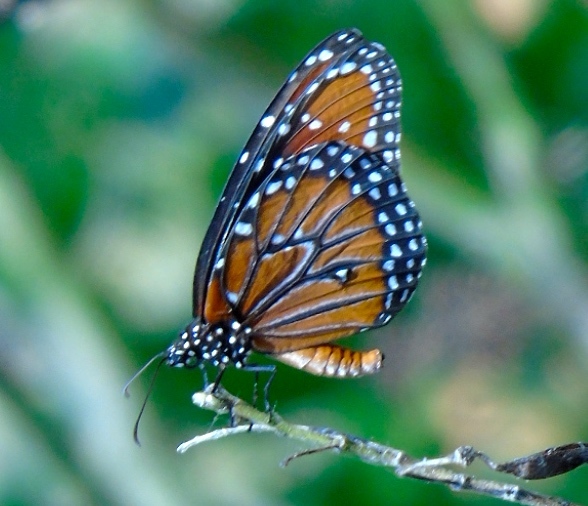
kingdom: Animalia
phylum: Arthropoda
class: Insecta
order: Lepidoptera
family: Nymphalidae
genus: Danaus
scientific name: Danaus gilippus
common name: Queen
